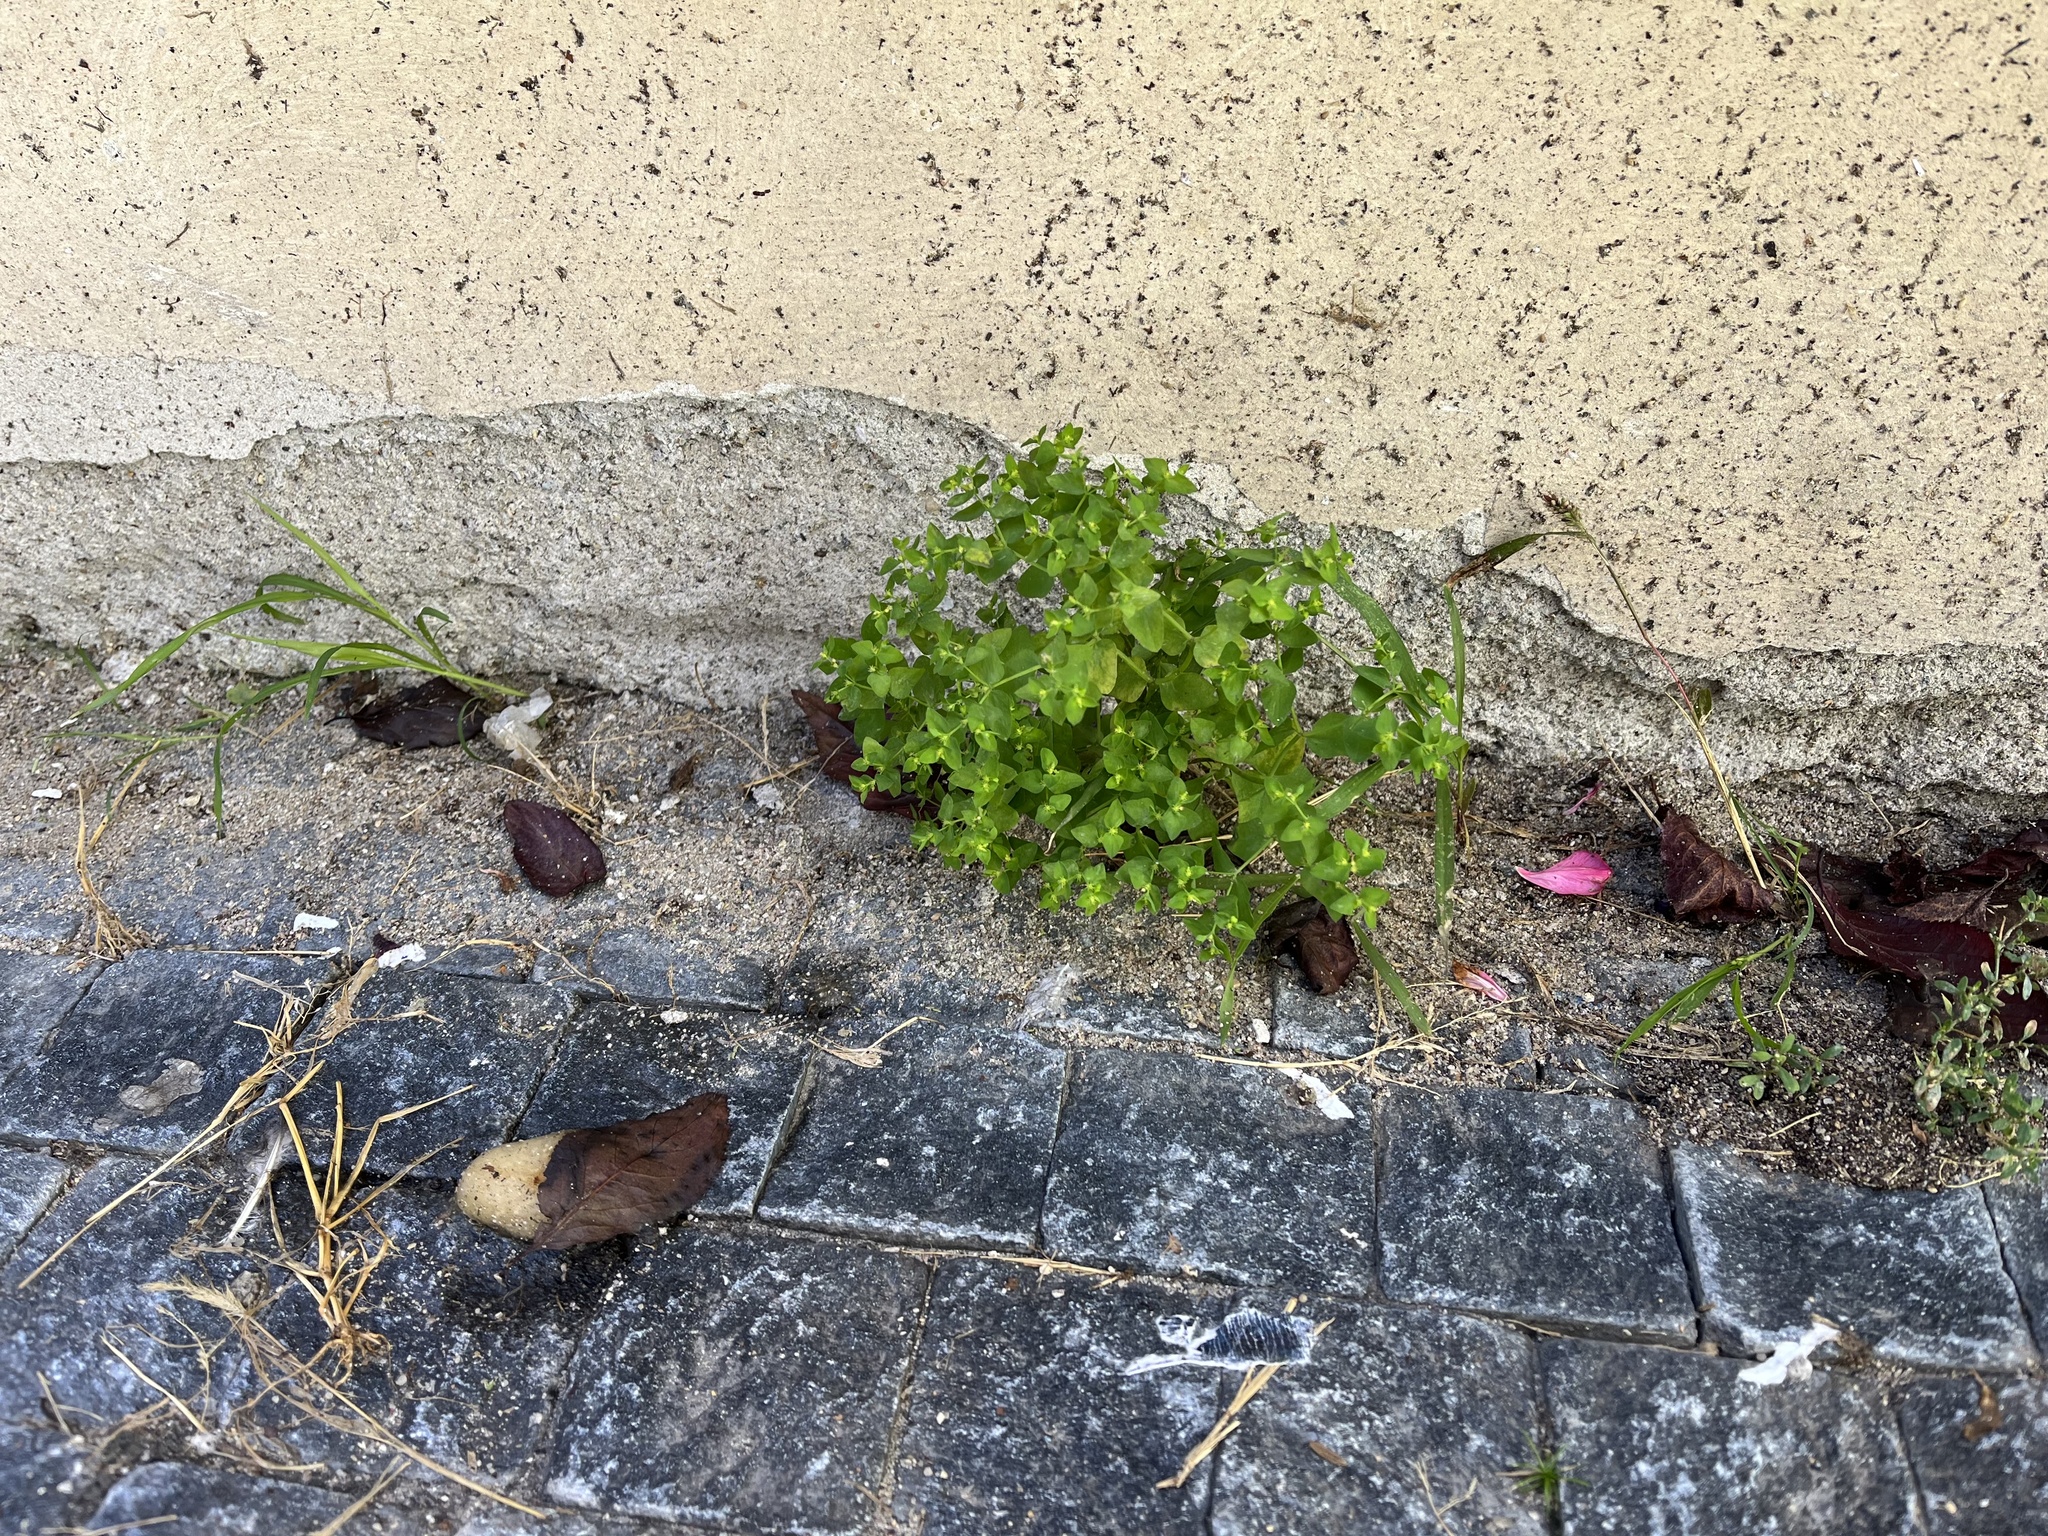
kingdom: Plantae
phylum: Tracheophyta
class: Magnoliopsida
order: Malpighiales
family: Euphorbiaceae
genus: Euphorbia
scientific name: Euphorbia peplus
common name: Petty spurge
